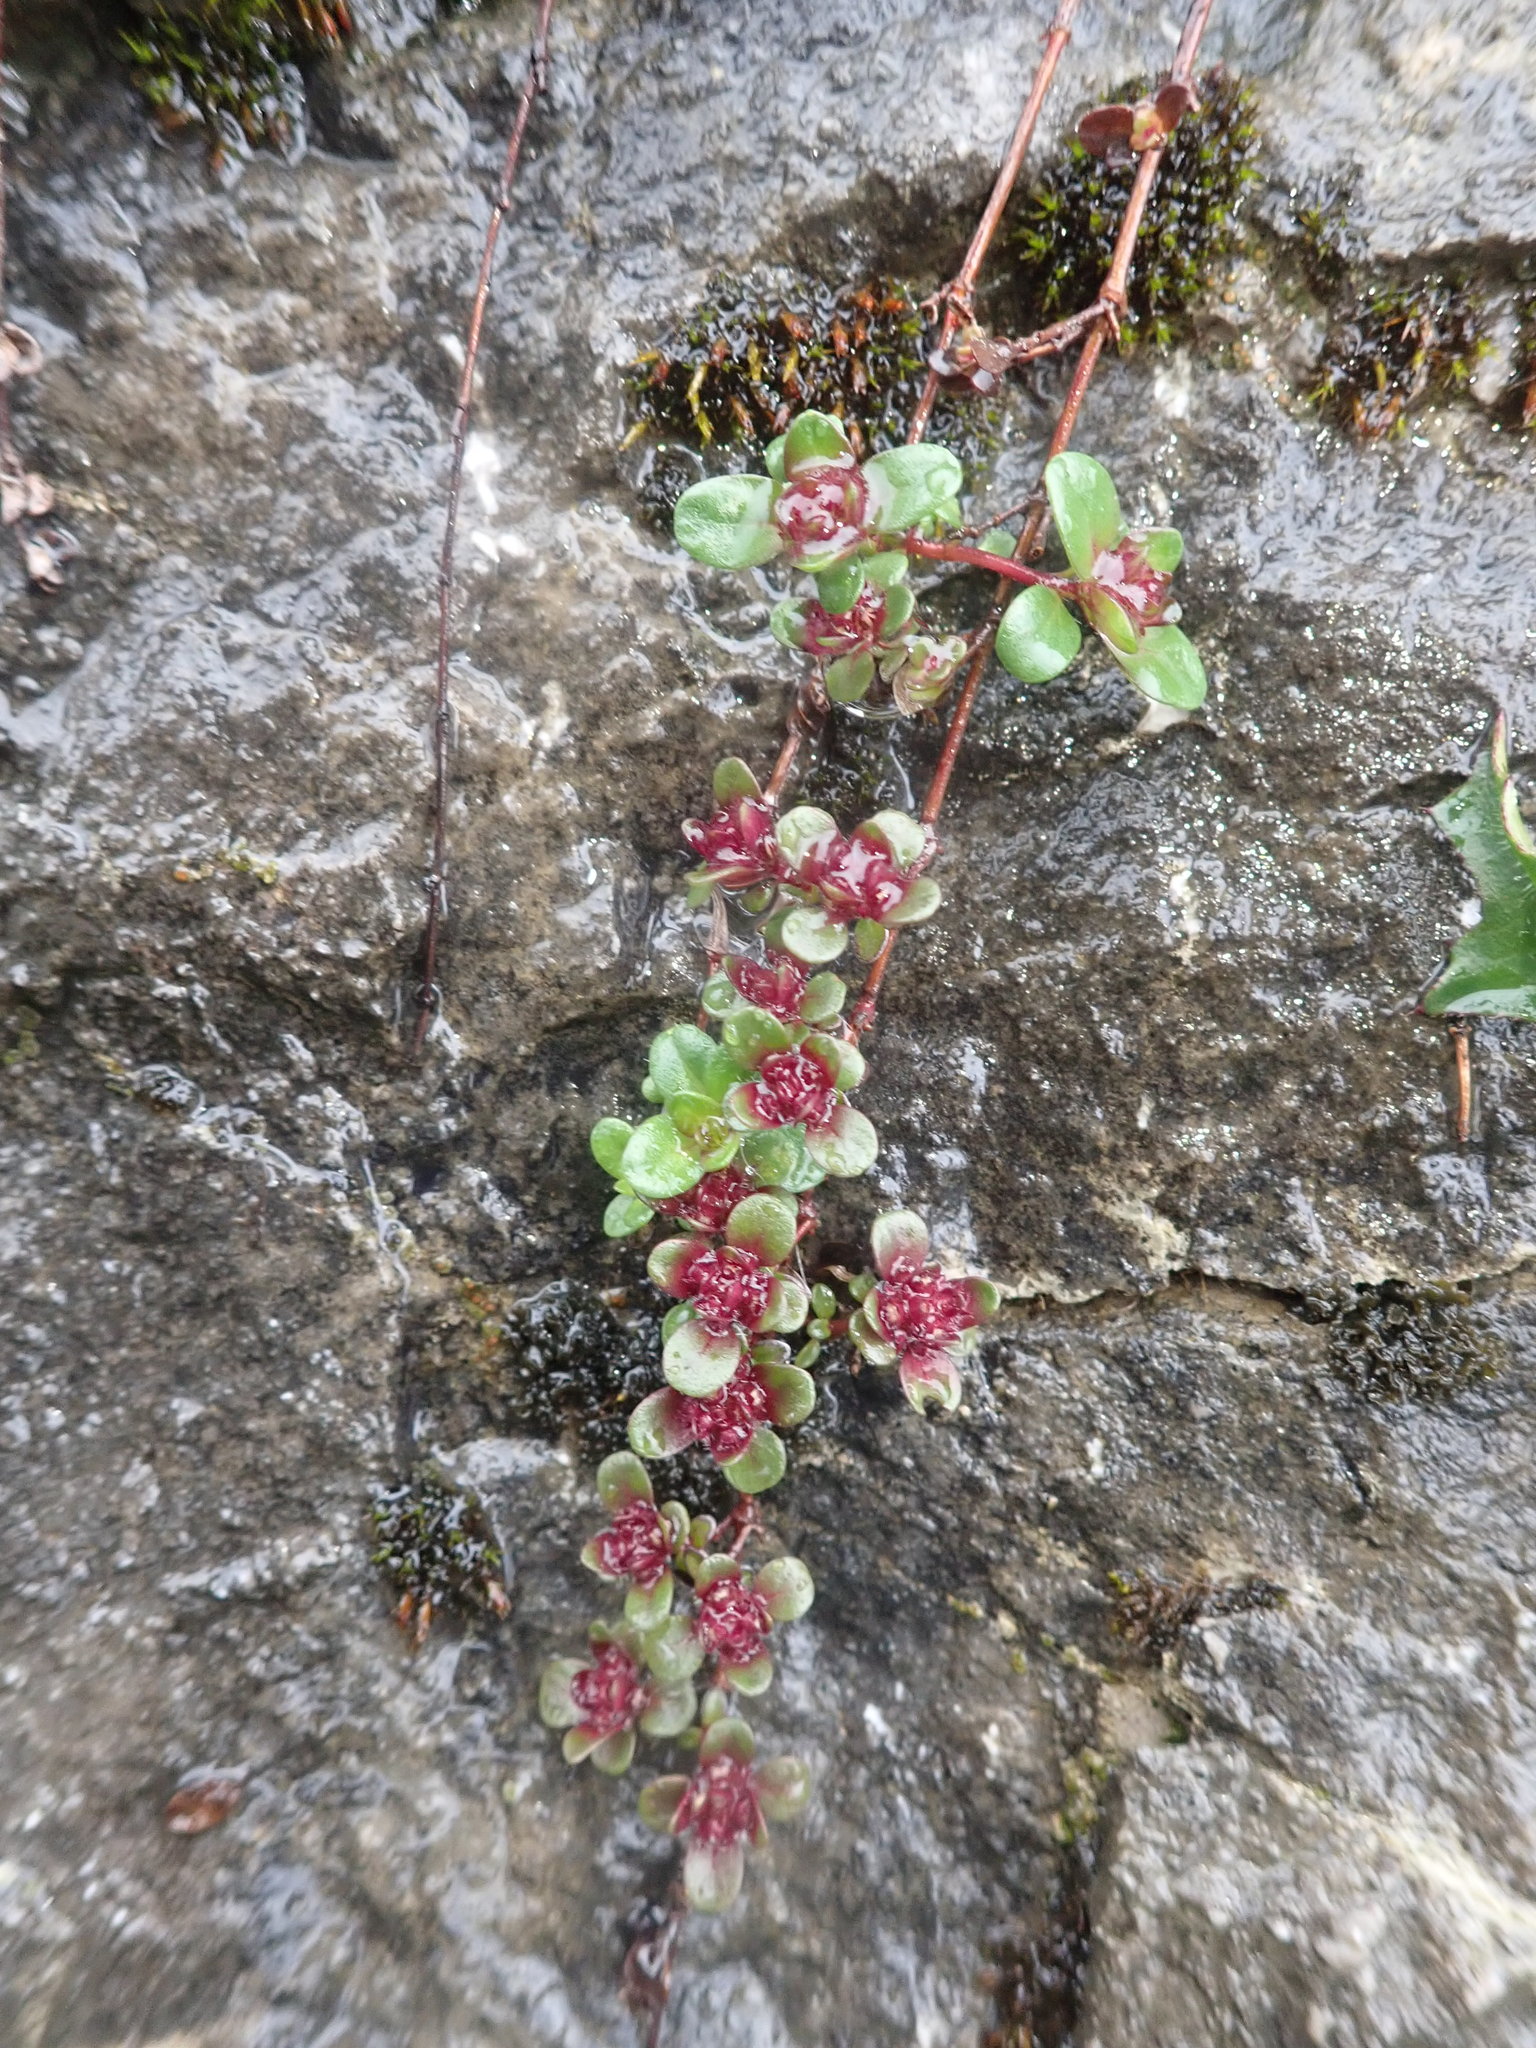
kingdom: Plantae
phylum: Tracheophyta
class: Magnoliopsida
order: Lamiales
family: Lamiaceae
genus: Thymus
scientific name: Thymus praecox
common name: Wild thyme
